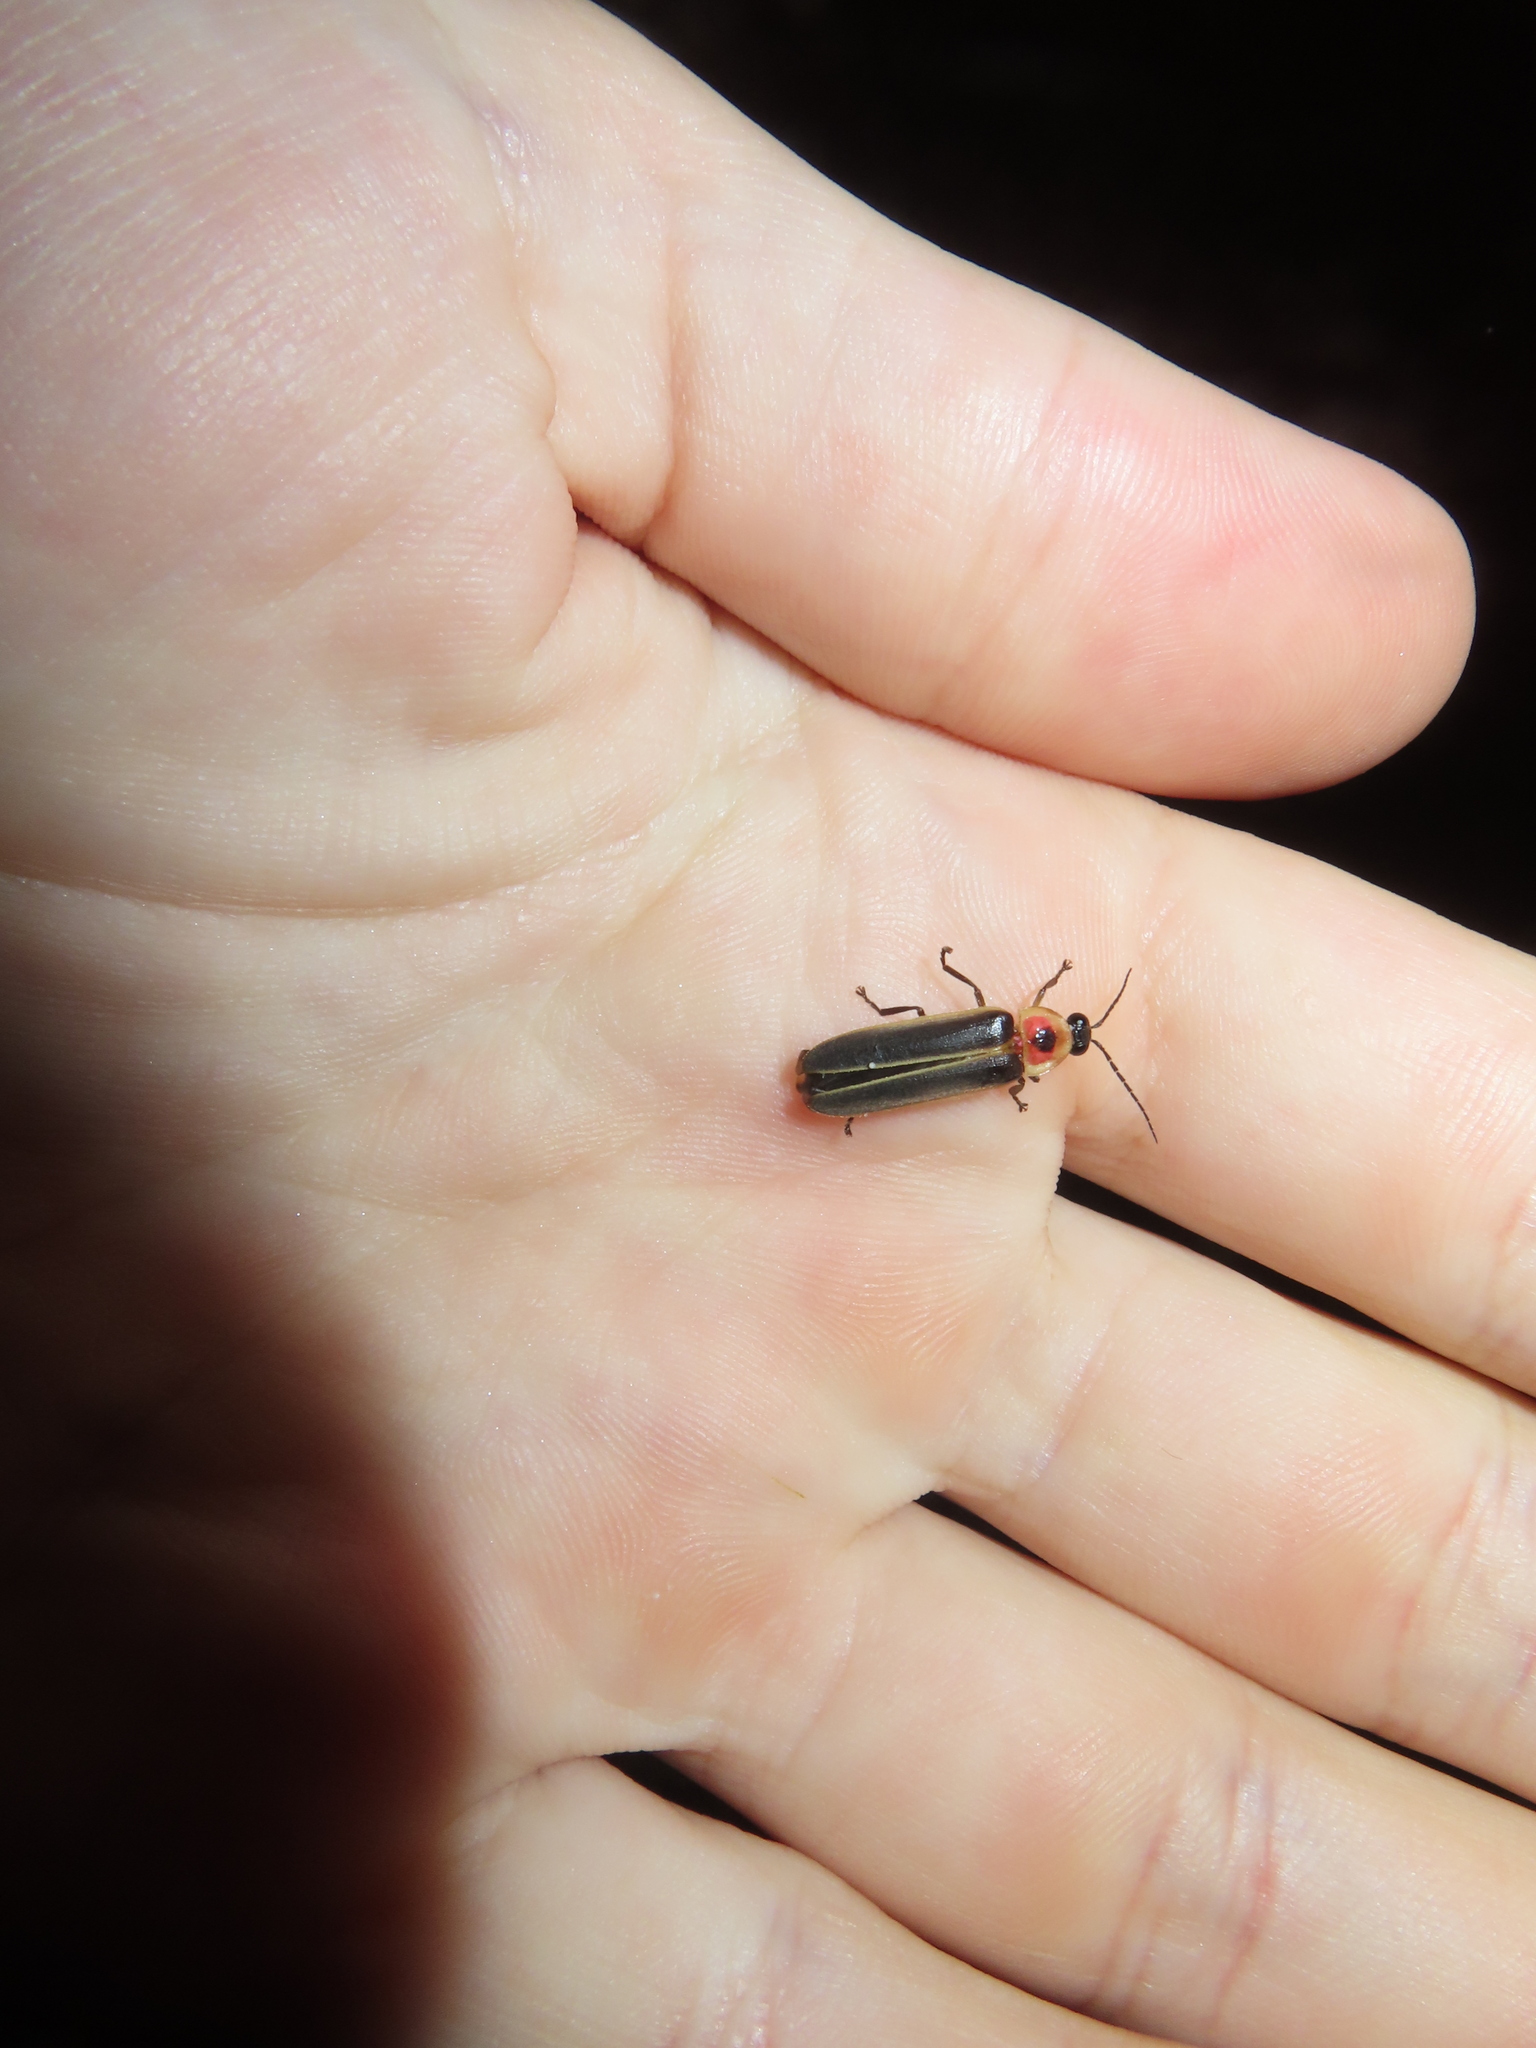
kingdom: Animalia
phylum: Arthropoda
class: Insecta
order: Coleoptera
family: Lampyridae
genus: Photinus
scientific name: Photinus pyralis
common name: Big dipper firefly
